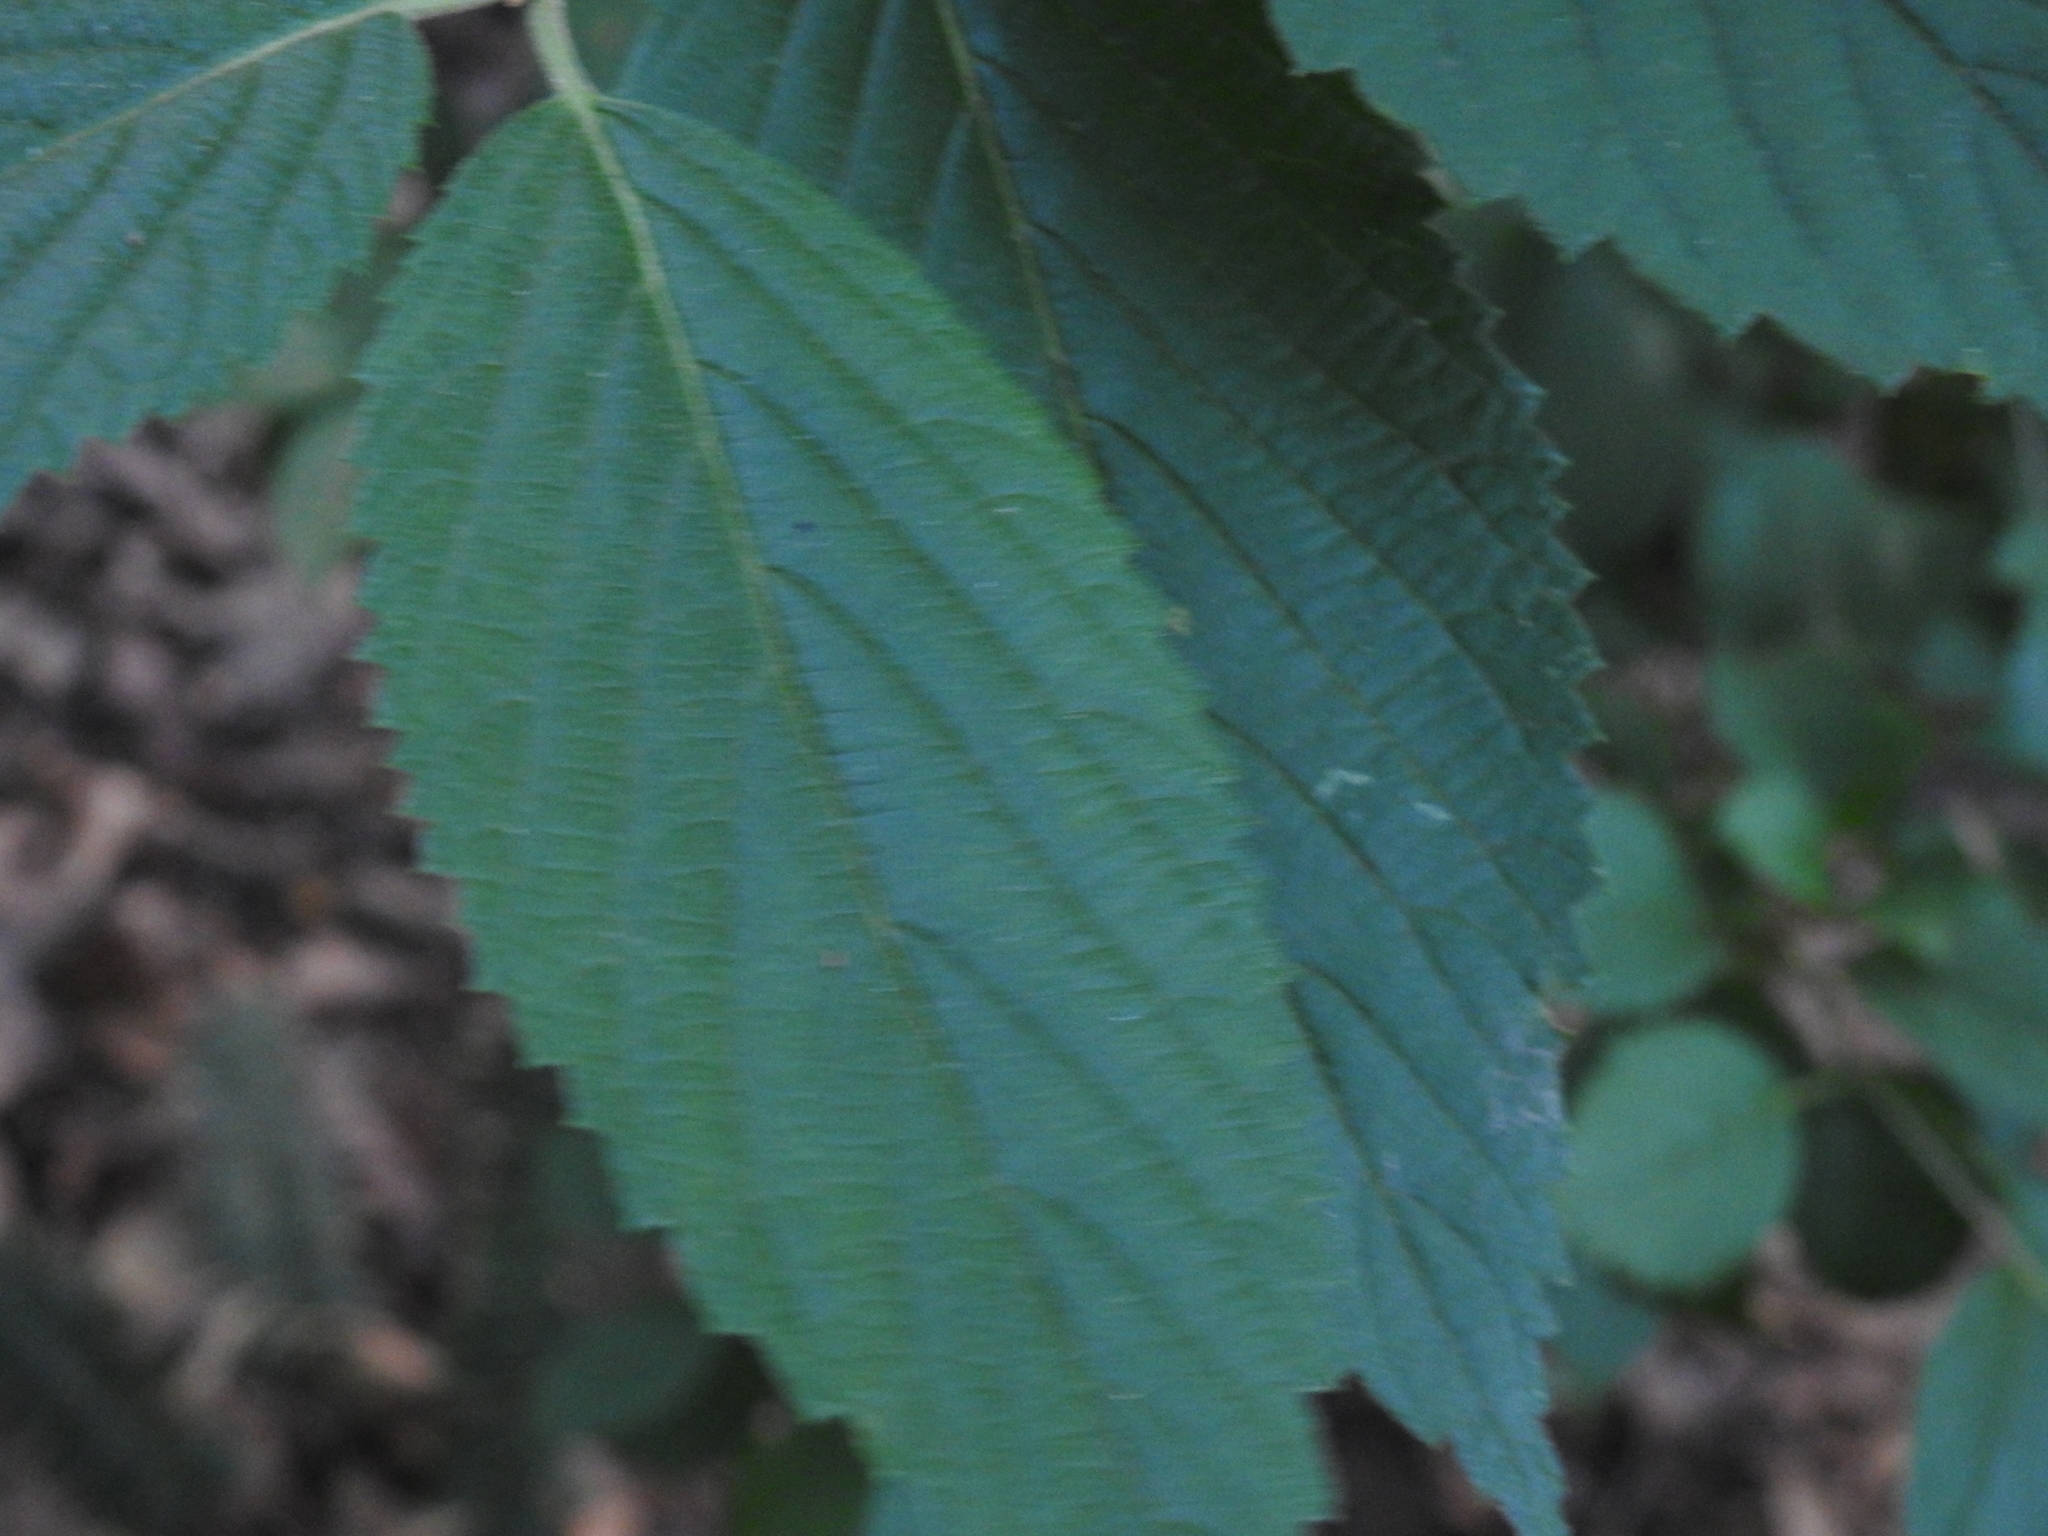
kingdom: Plantae
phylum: Tracheophyta
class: Magnoliopsida
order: Dipsacales
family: Viburnaceae
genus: Viburnum
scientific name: Viburnum plicatum
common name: Japanese snowball
